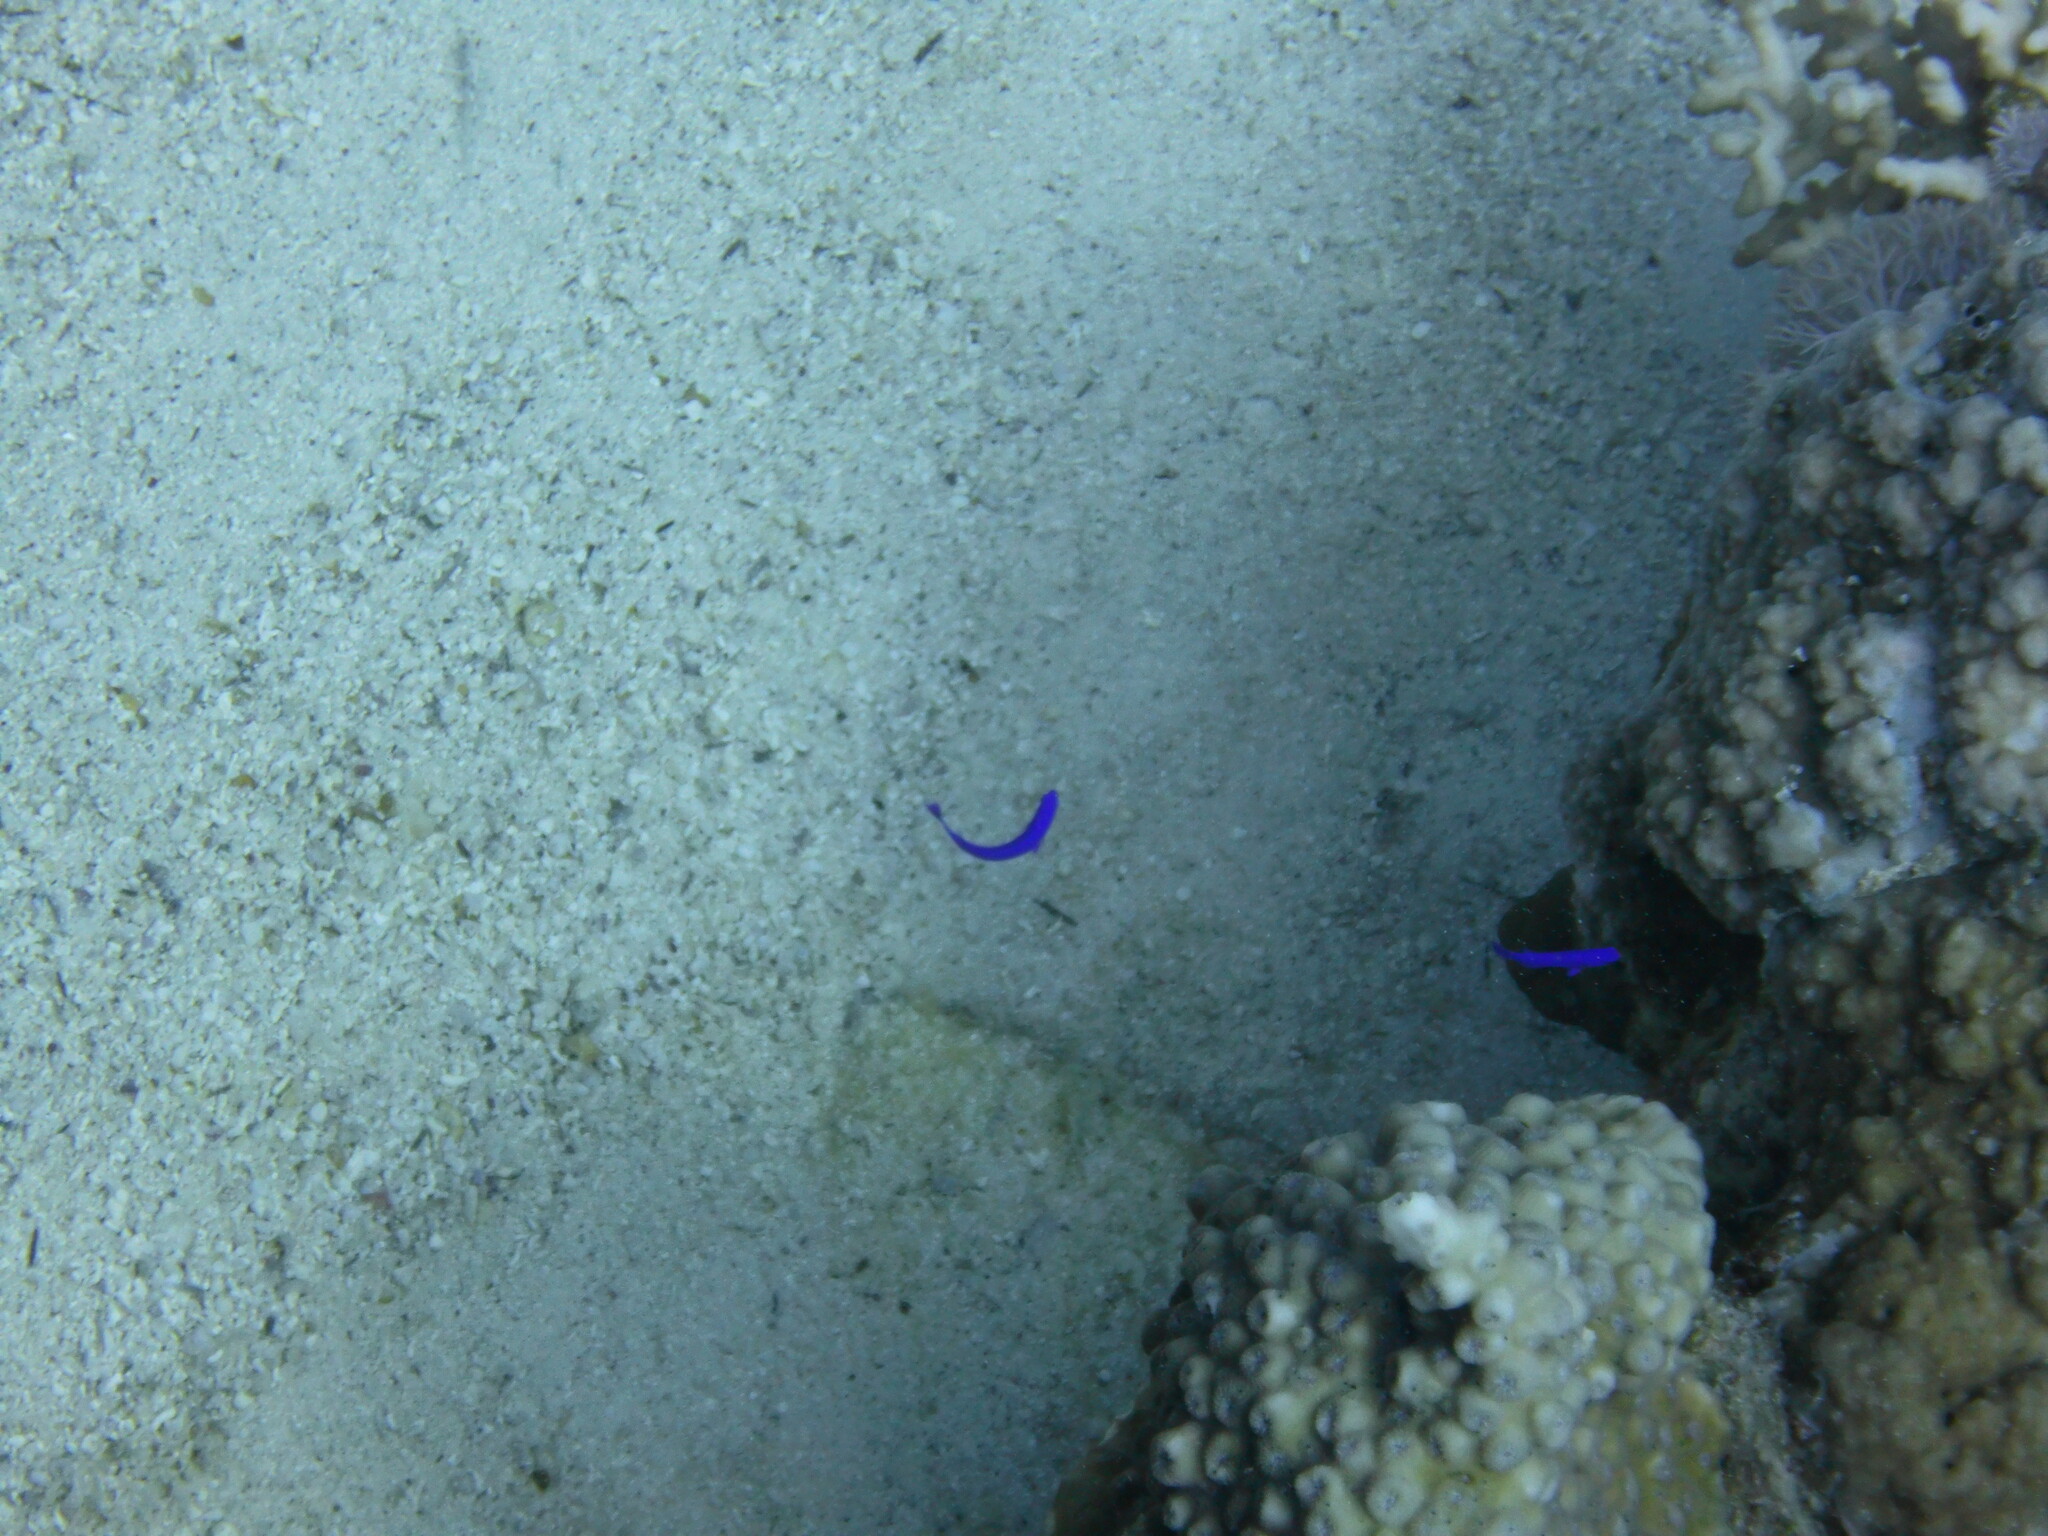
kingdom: Animalia
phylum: Chordata
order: Perciformes
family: Pseudochromidae
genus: Pseudochromis
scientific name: Pseudochromis fridmani
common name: Orchid dottyback
